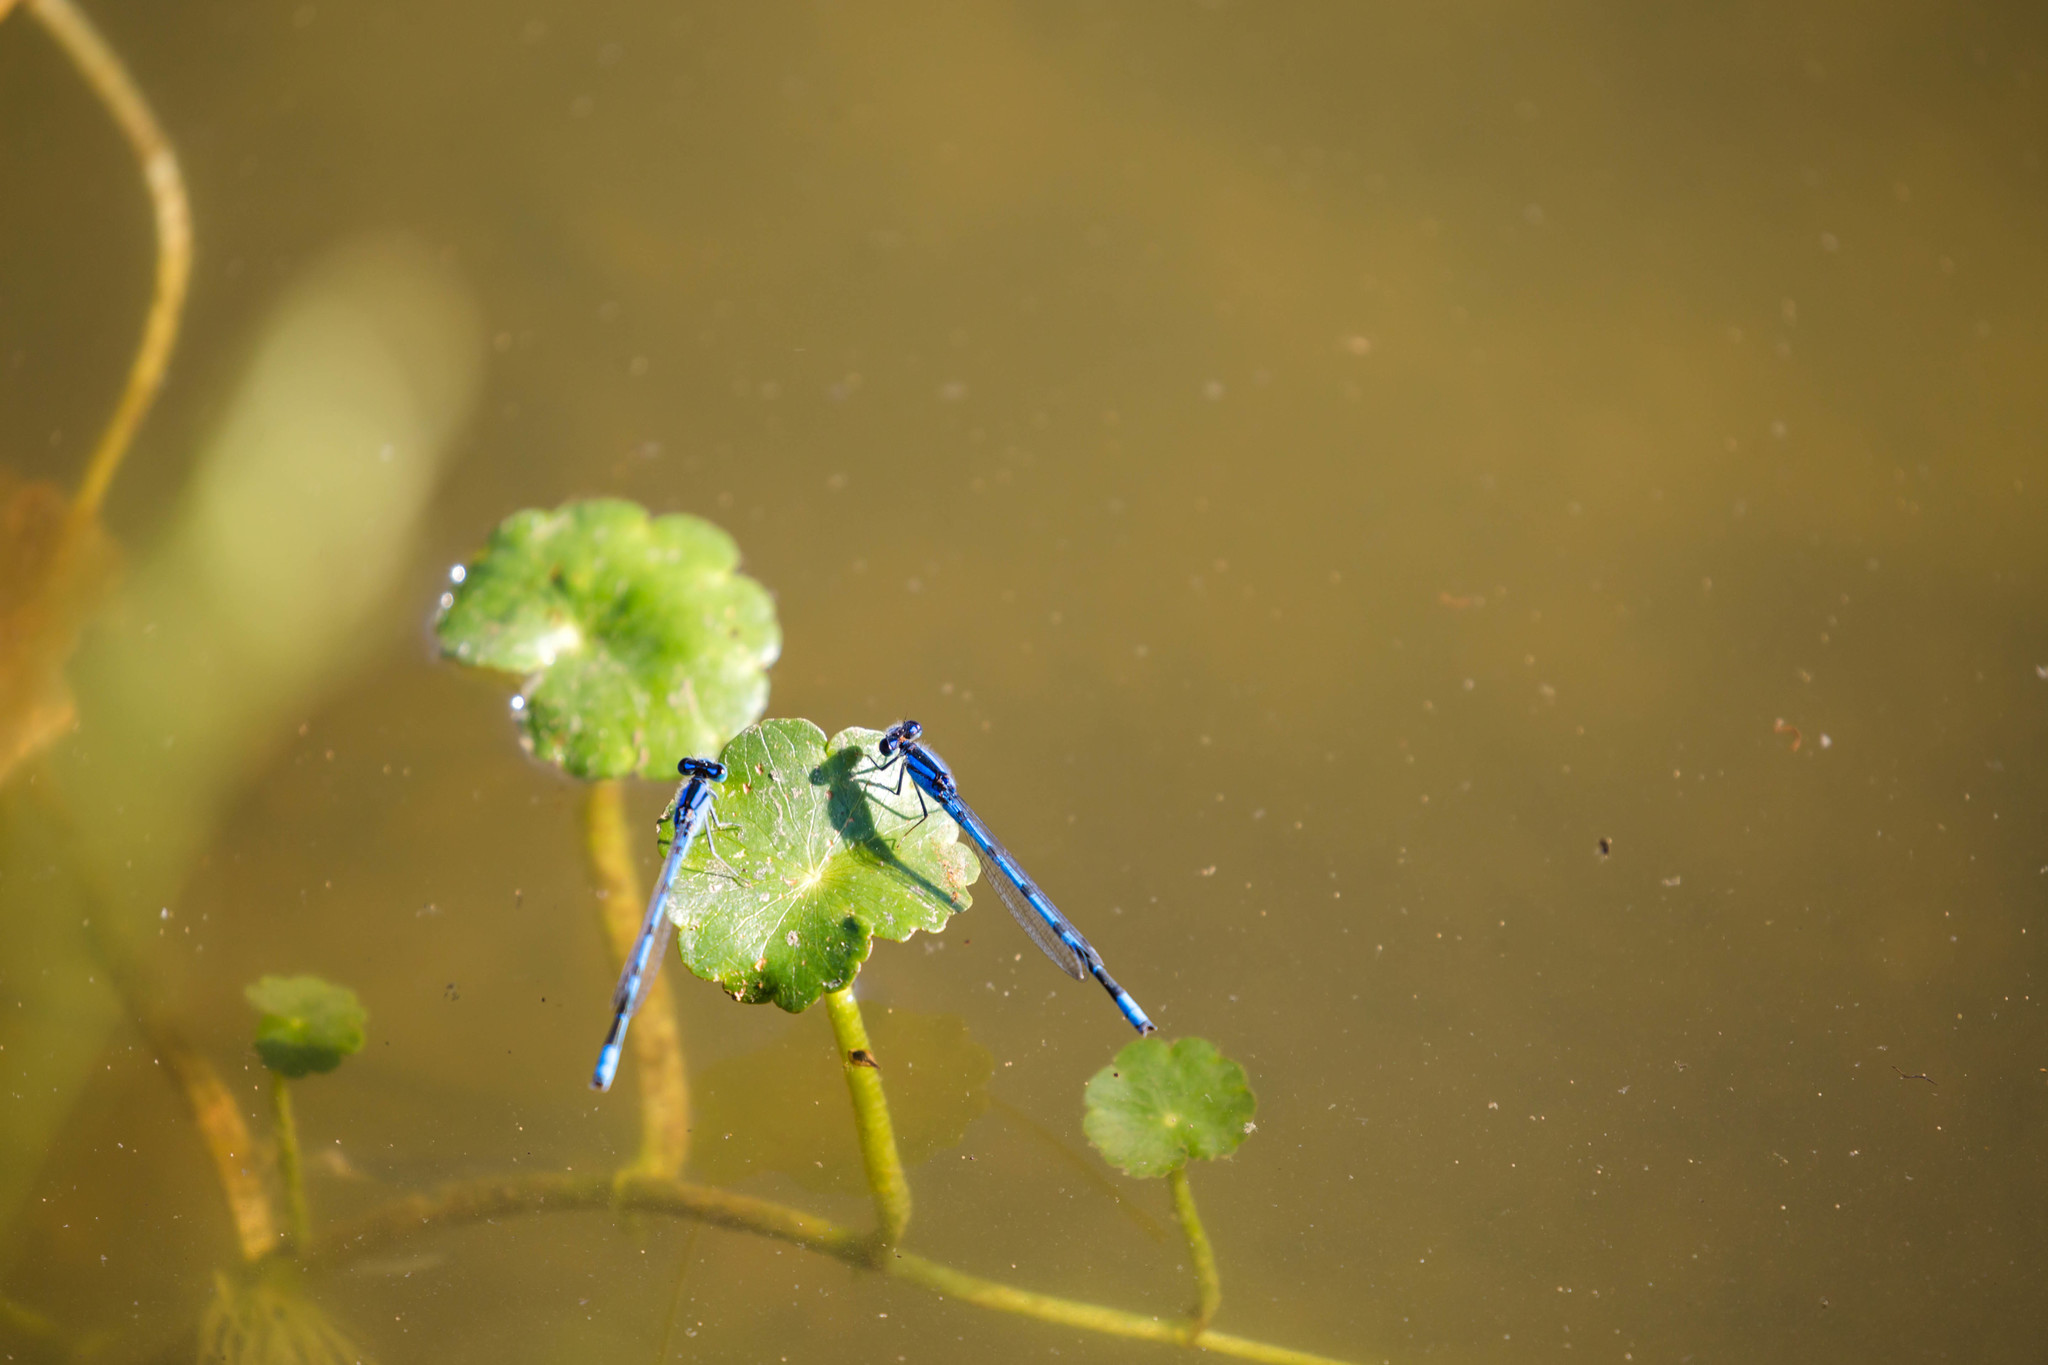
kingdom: Animalia
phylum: Arthropoda
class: Insecta
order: Odonata
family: Coenagrionidae
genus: Enallagma
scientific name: Enallagma doubledayi
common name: Atlantic bluet
